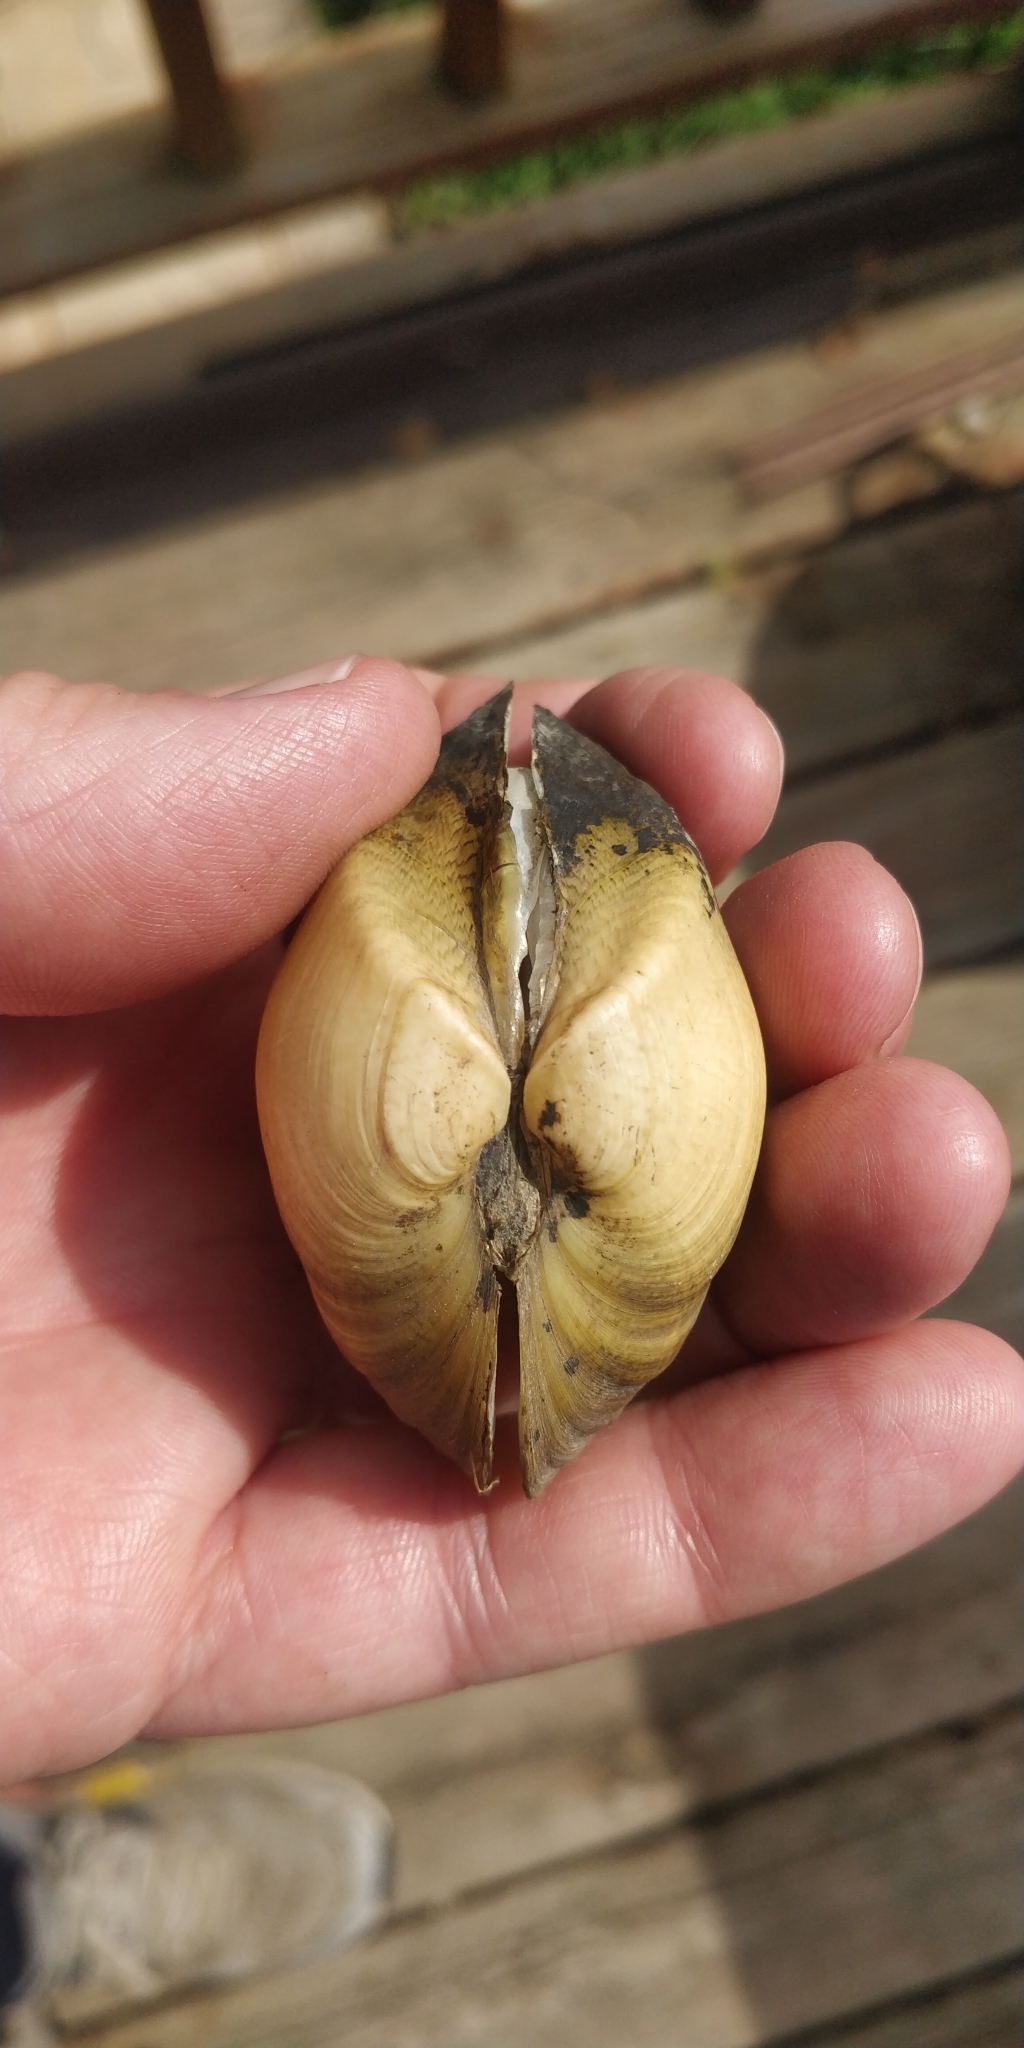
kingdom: Animalia
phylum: Mollusca
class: Bivalvia
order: Unionida
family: Unionidae
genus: Truncilla
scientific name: Truncilla truncata
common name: Deertoe
